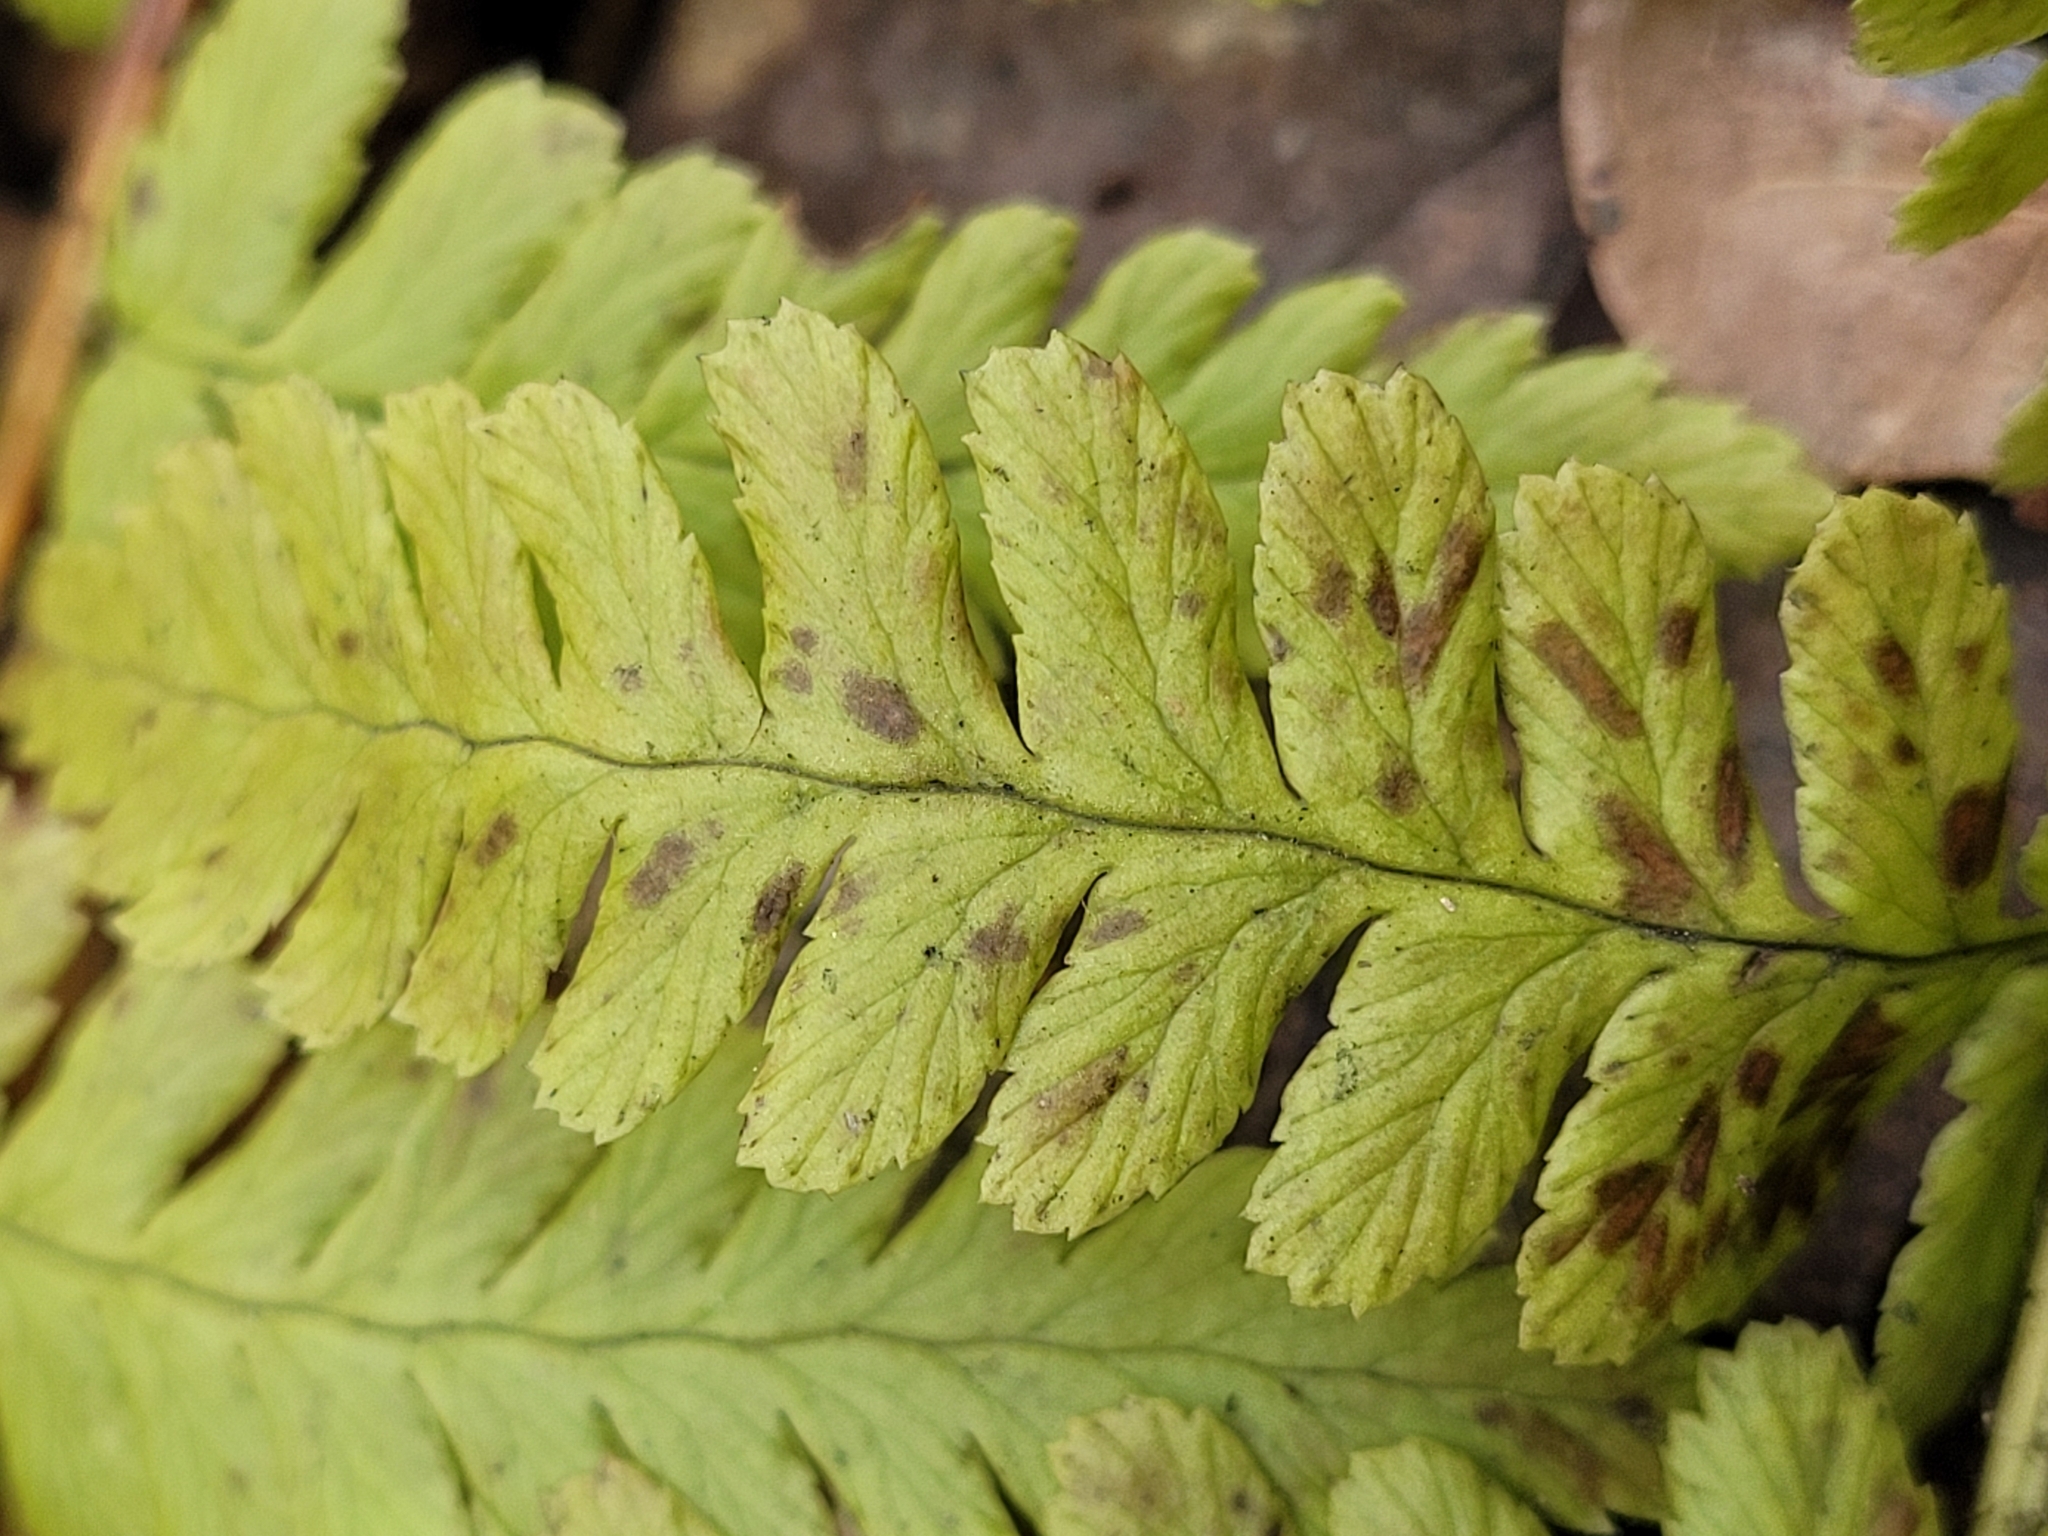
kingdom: Plantae
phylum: Tracheophyta
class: Polypodiopsida
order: Polypodiales
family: Dryopteridaceae
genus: Dryopteris
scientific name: Dryopteris filix-mas
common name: Male fern
